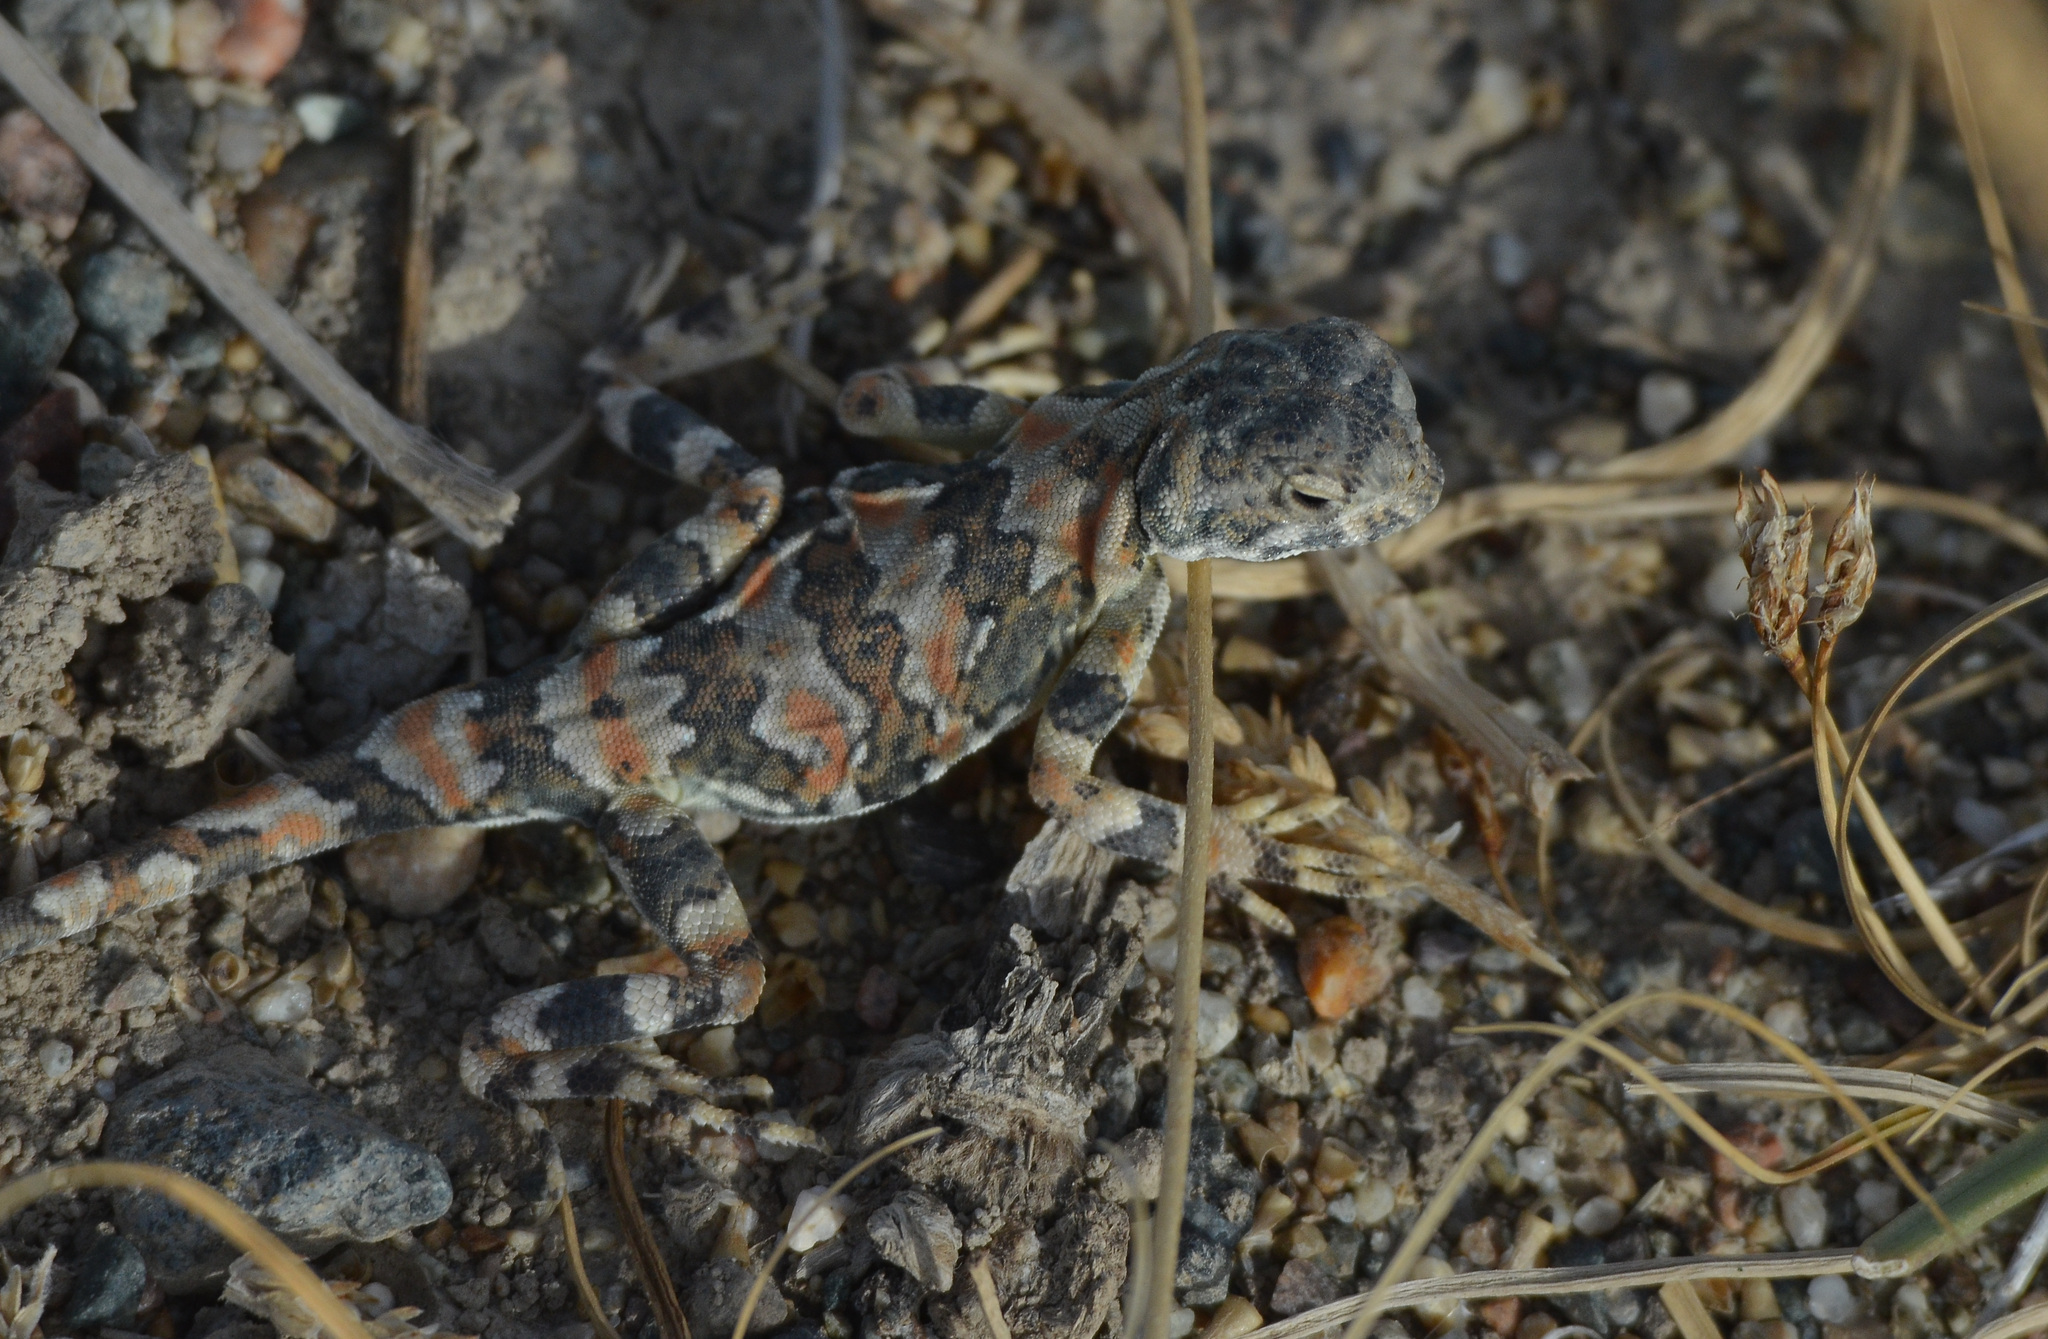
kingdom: Animalia
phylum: Chordata
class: Squamata
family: Agamidae
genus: Phrynocephalus
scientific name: Phrynocephalus versicolor
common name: Tuvan toad-headed agama
